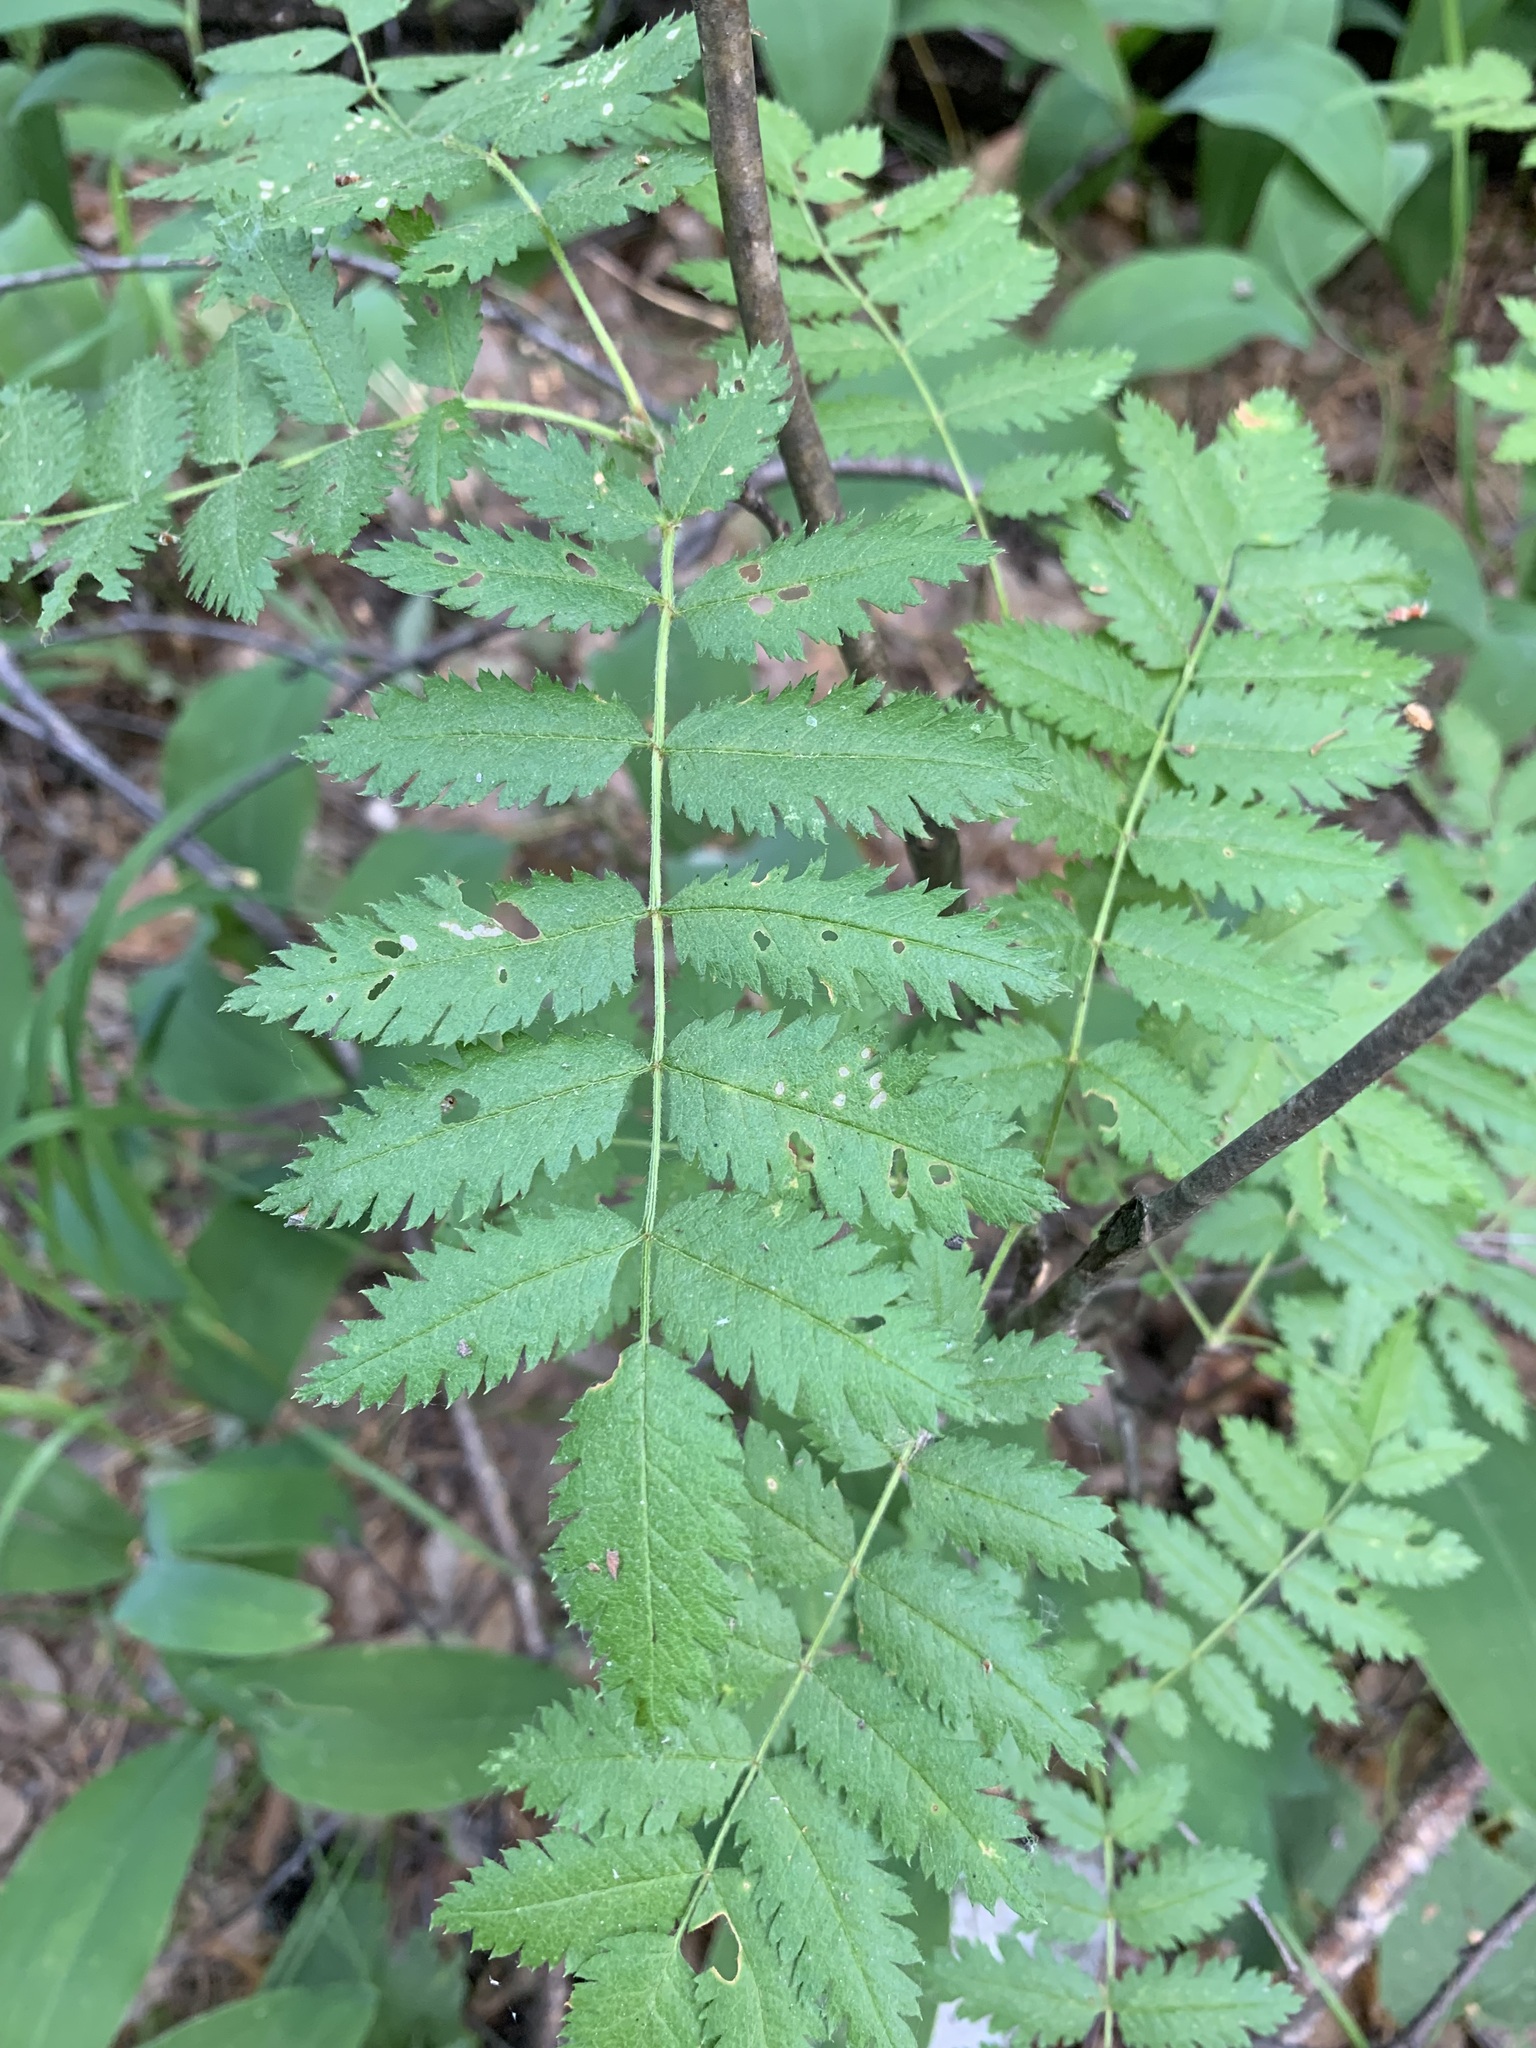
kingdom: Plantae
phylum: Tracheophyta
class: Magnoliopsida
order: Rosales
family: Rosaceae
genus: Sorbus
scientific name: Sorbus aucuparia
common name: Rowan
